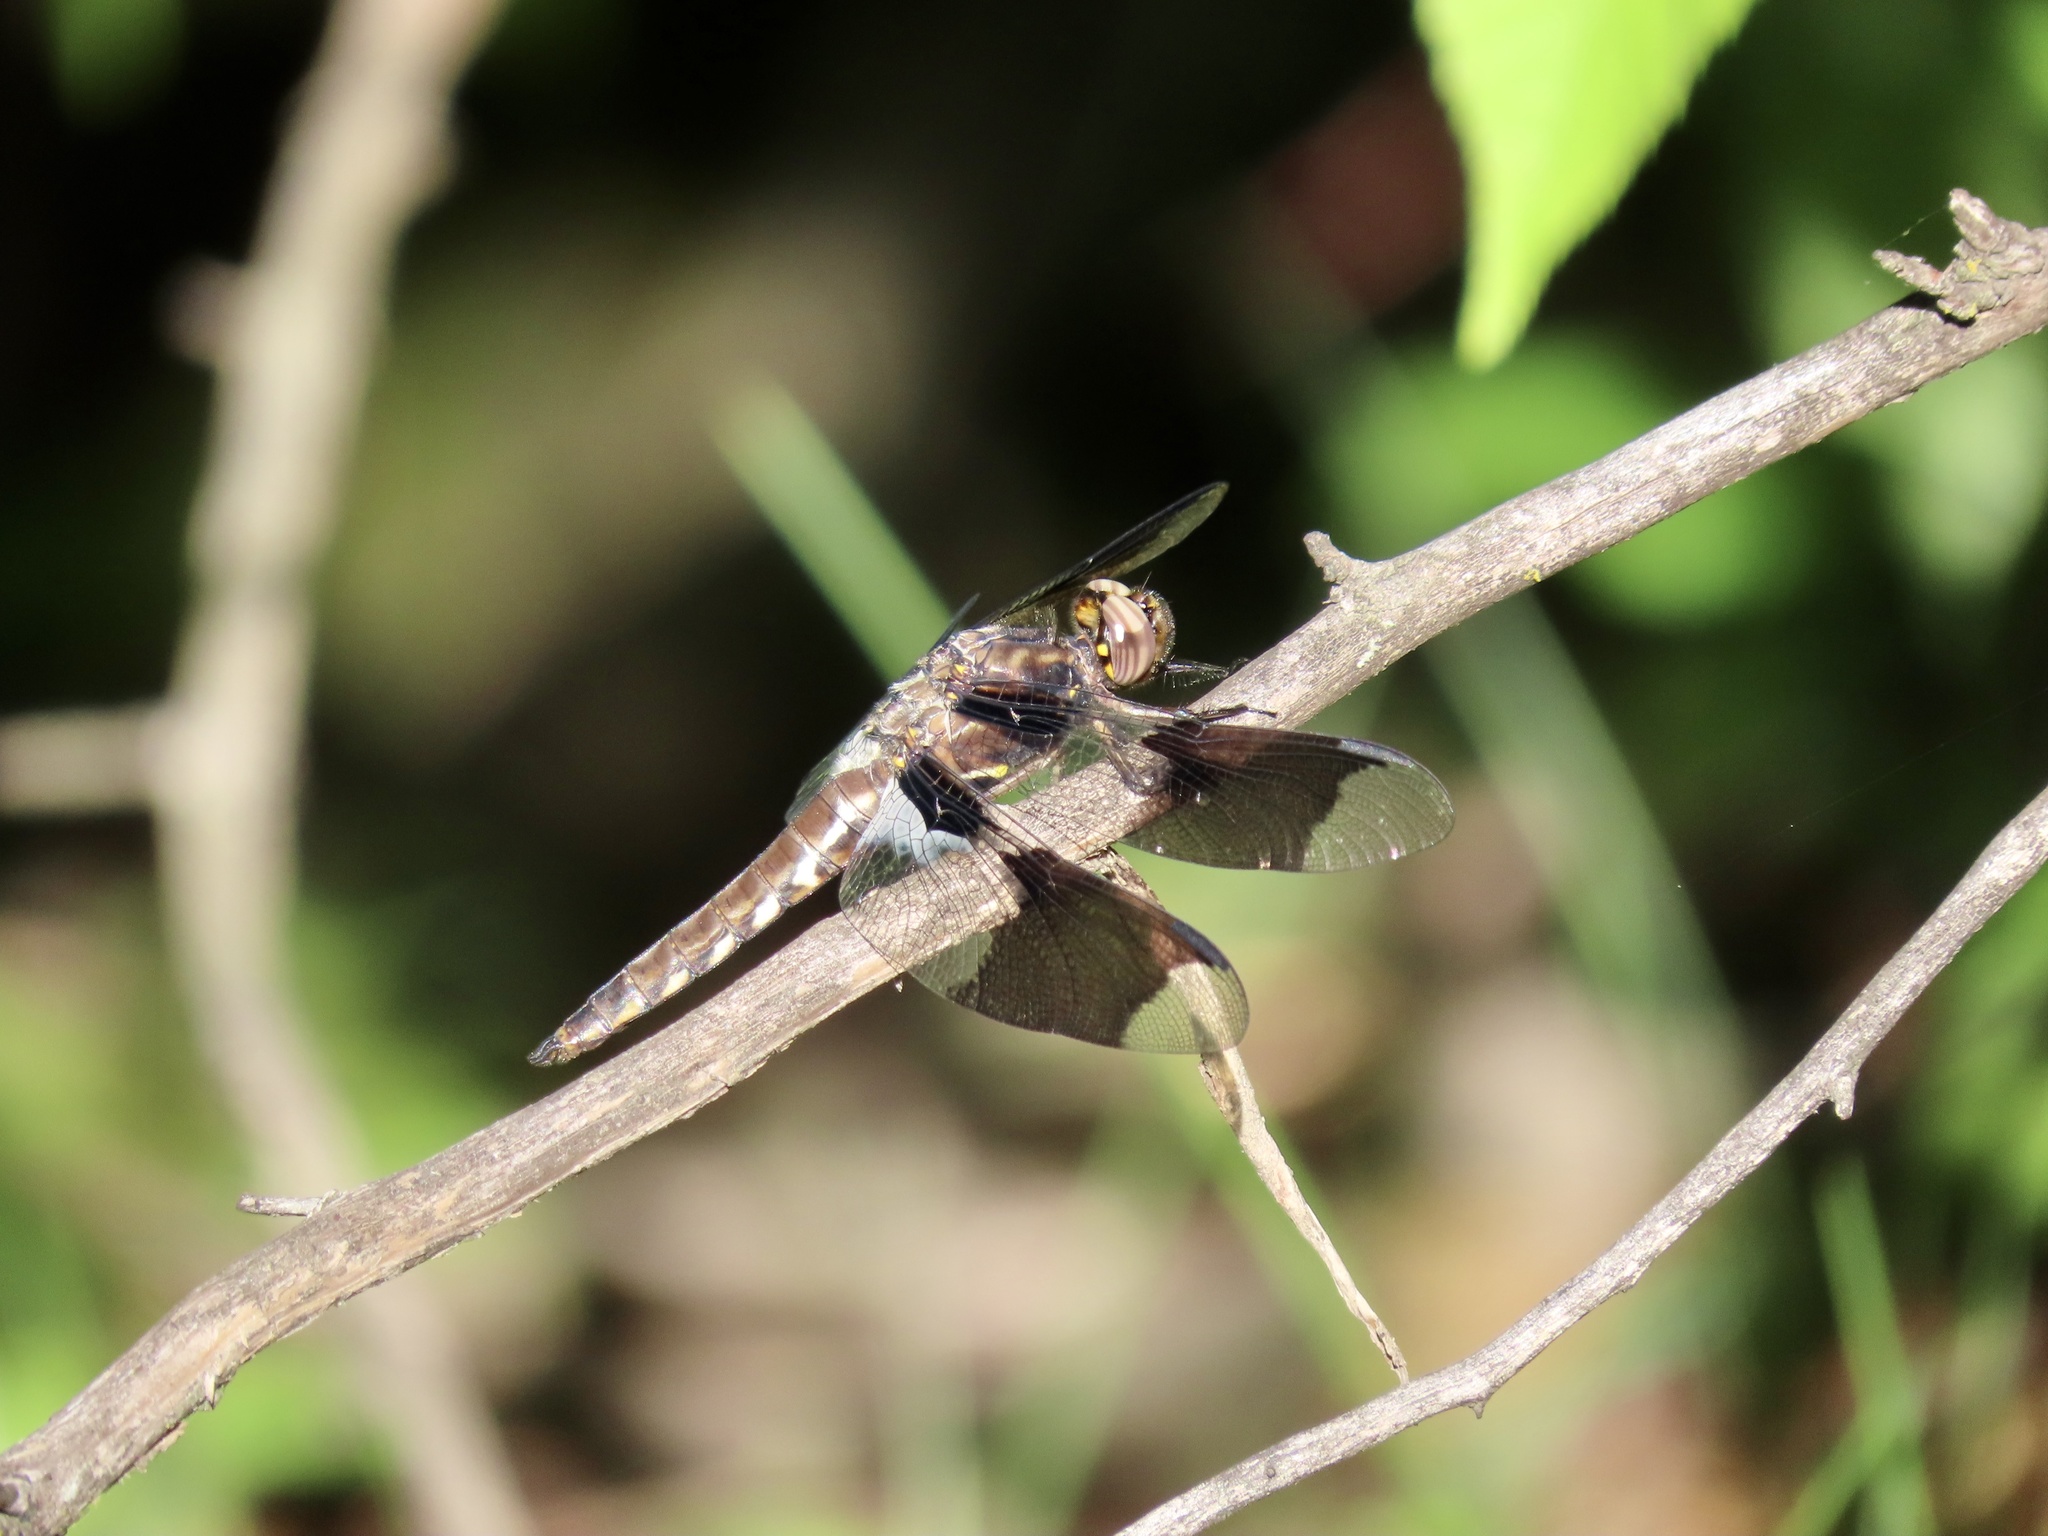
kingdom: Animalia
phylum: Arthropoda
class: Insecta
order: Odonata
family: Libellulidae
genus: Plathemis
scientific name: Plathemis lydia
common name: Common whitetail
